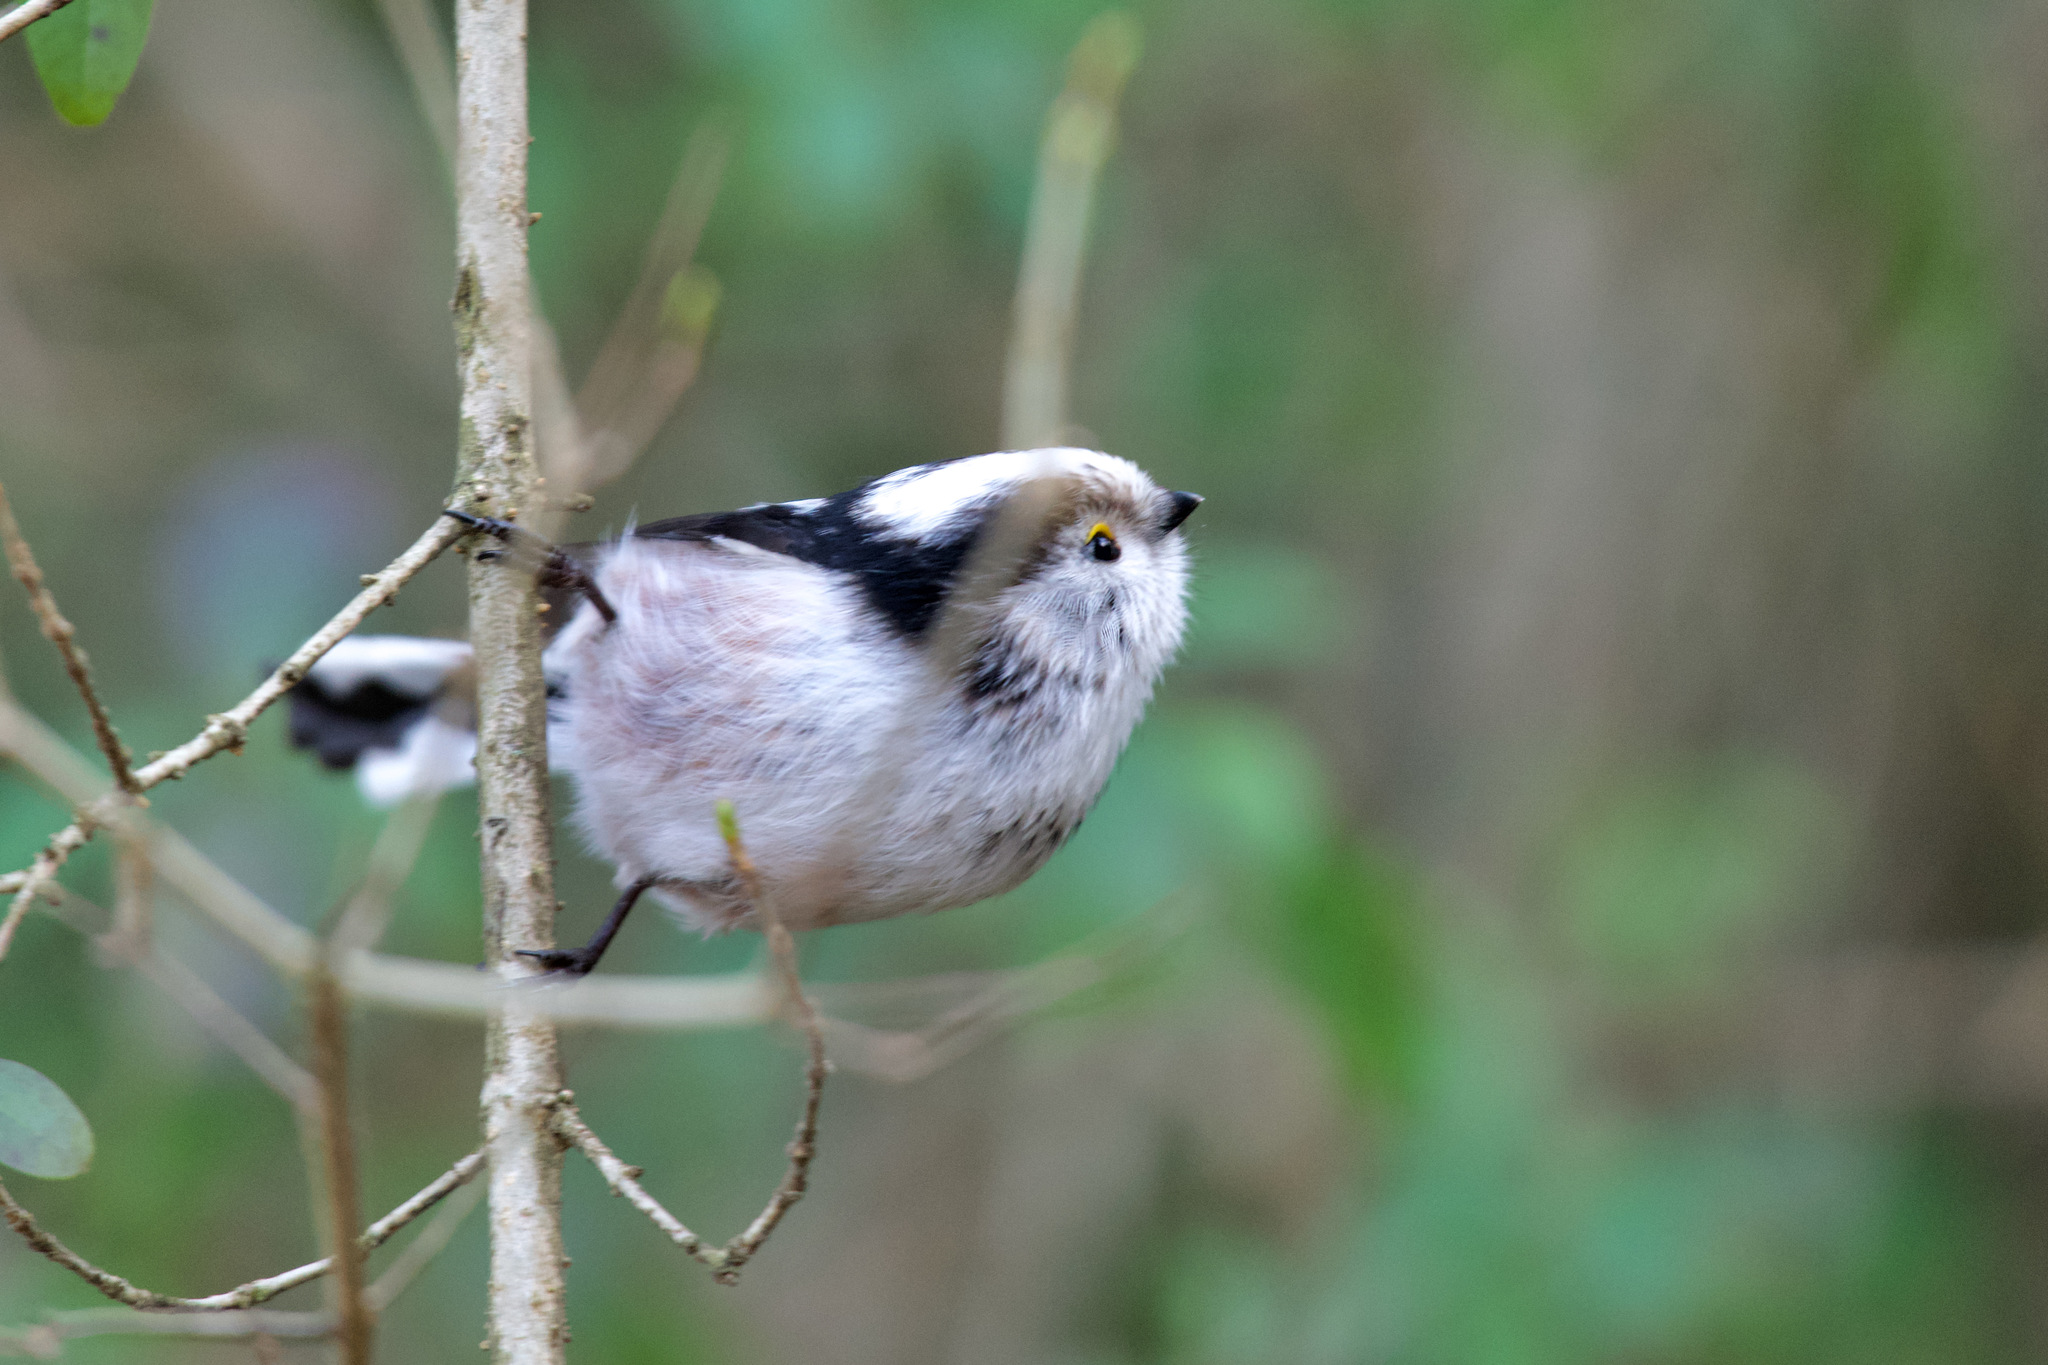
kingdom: Animalia
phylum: Chordata
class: Aves
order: Passeriformes
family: Aegithalidae
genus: Aegithalos
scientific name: Aegithalos caudatus
